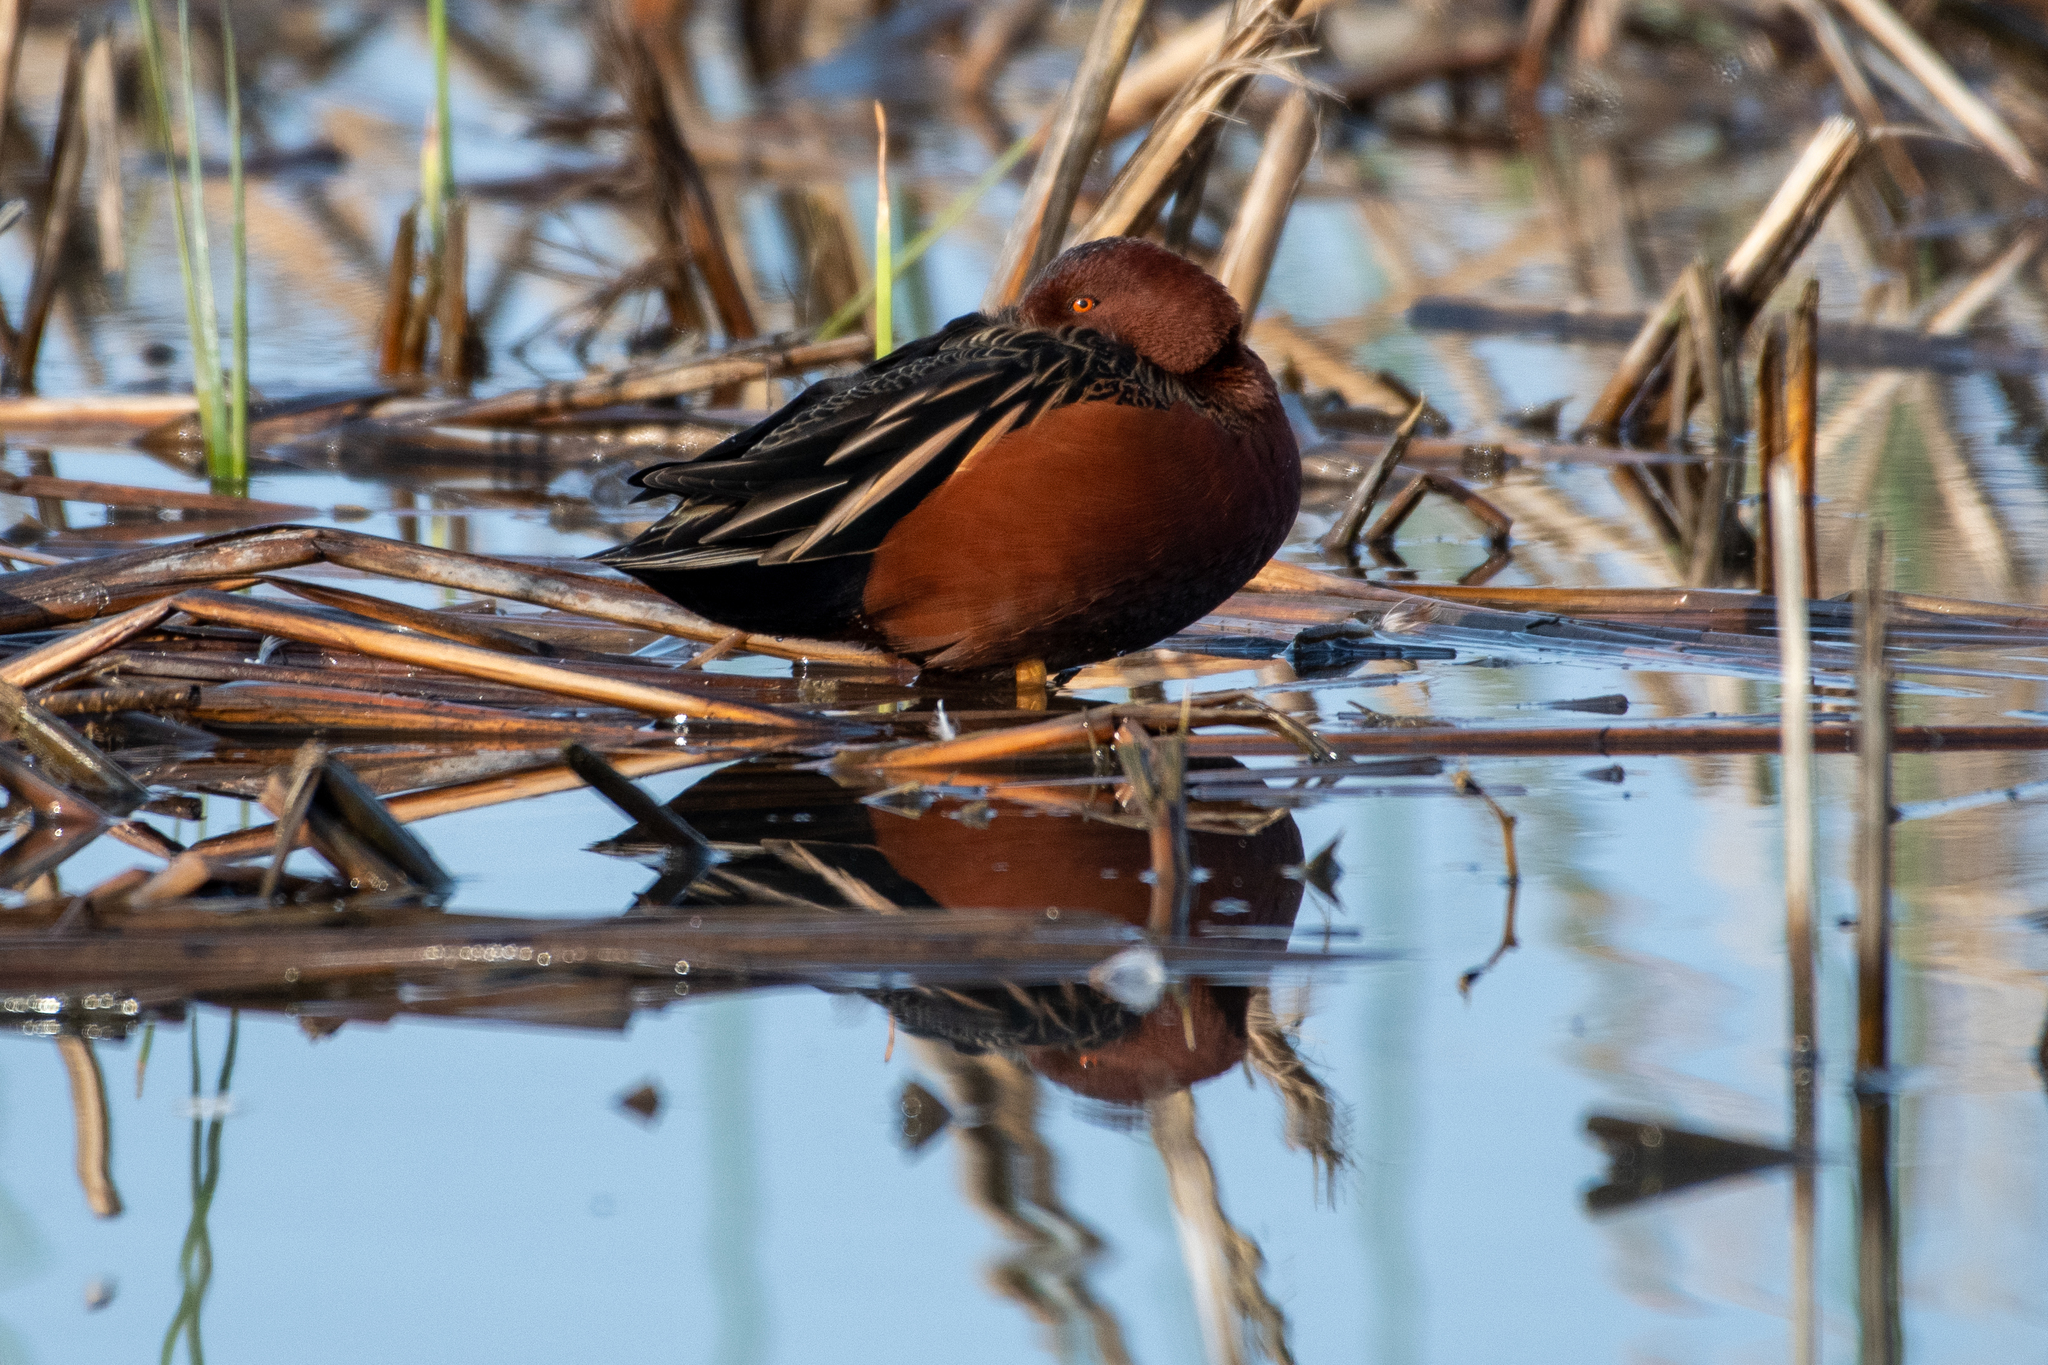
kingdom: Animalia
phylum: Chordata
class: Aves
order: Anseriformes
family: Anatidae
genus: Spatula
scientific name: Spatula cyanoptera
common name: Cinnamon teal
